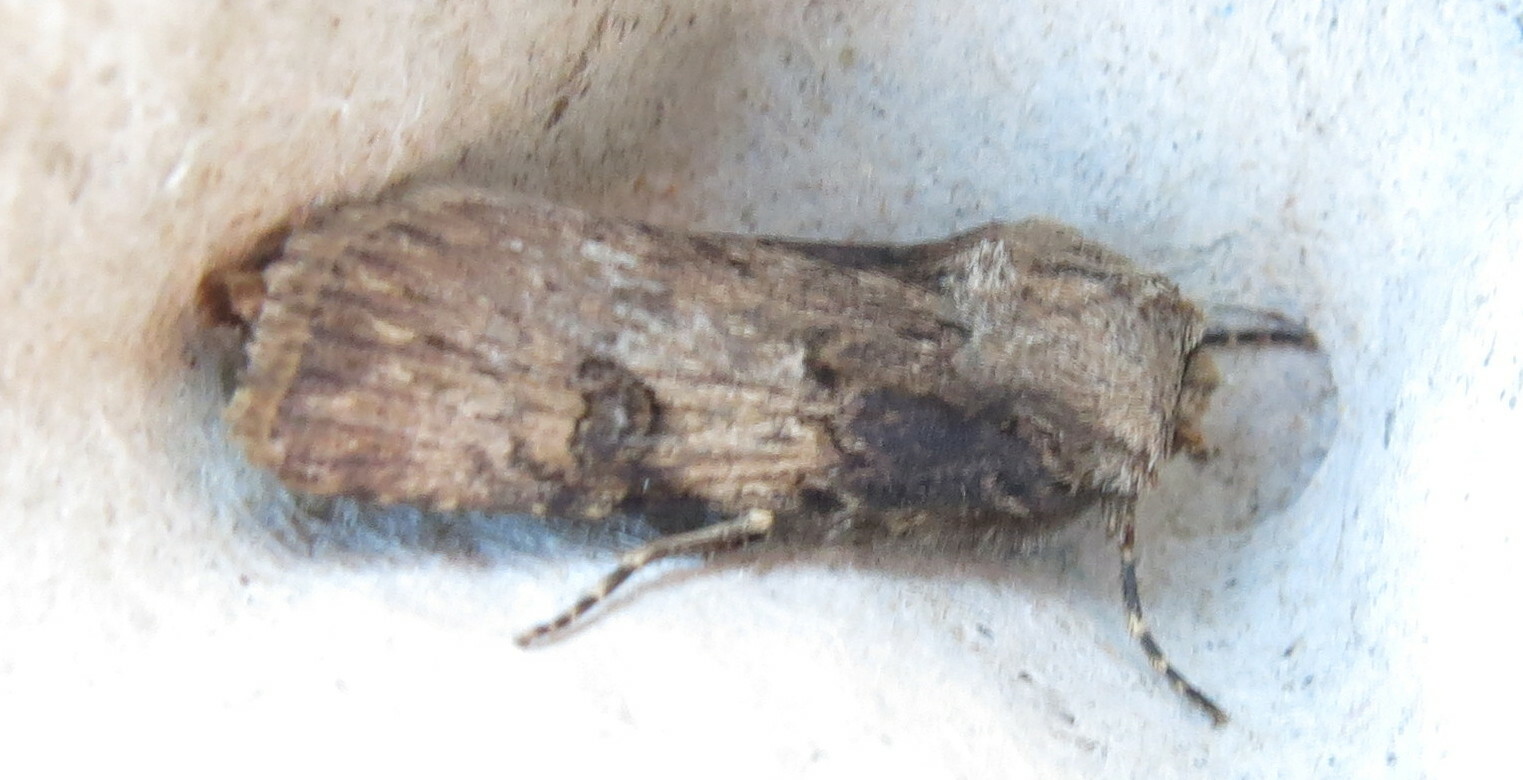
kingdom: Animalia
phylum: Arthropoda
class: Insecta
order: Lepidoptera
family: Noctuidae
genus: Agrotis
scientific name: Agrotis puta
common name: Shuttle-shaped dart
